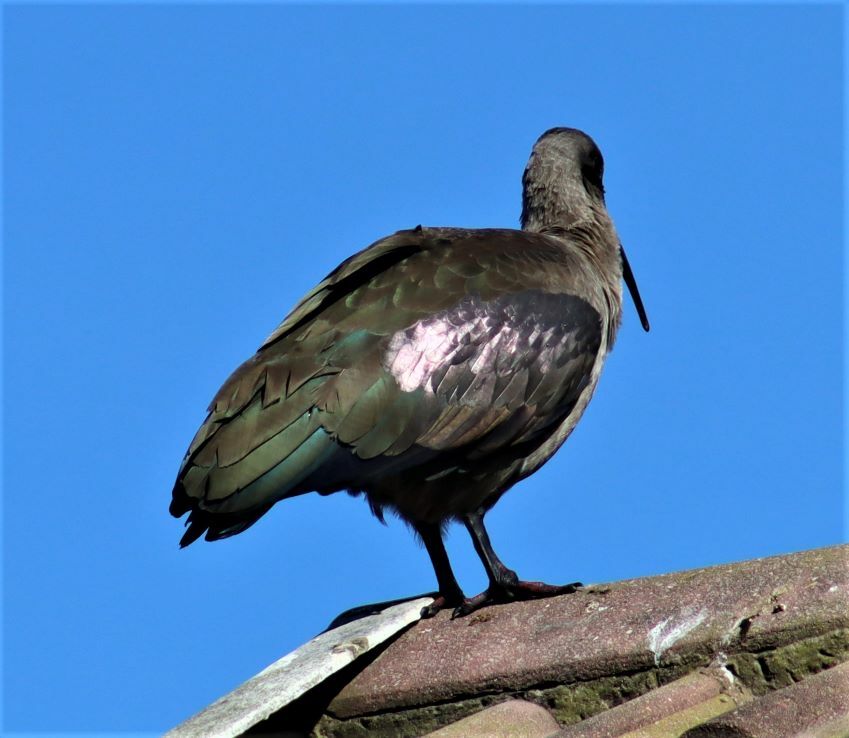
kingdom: Animalia
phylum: Chordata
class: Aves
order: Pelecaniformes
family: Threskiornithidae
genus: Bostrychia
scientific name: Bostrychia hagedash
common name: Hadada ibis
